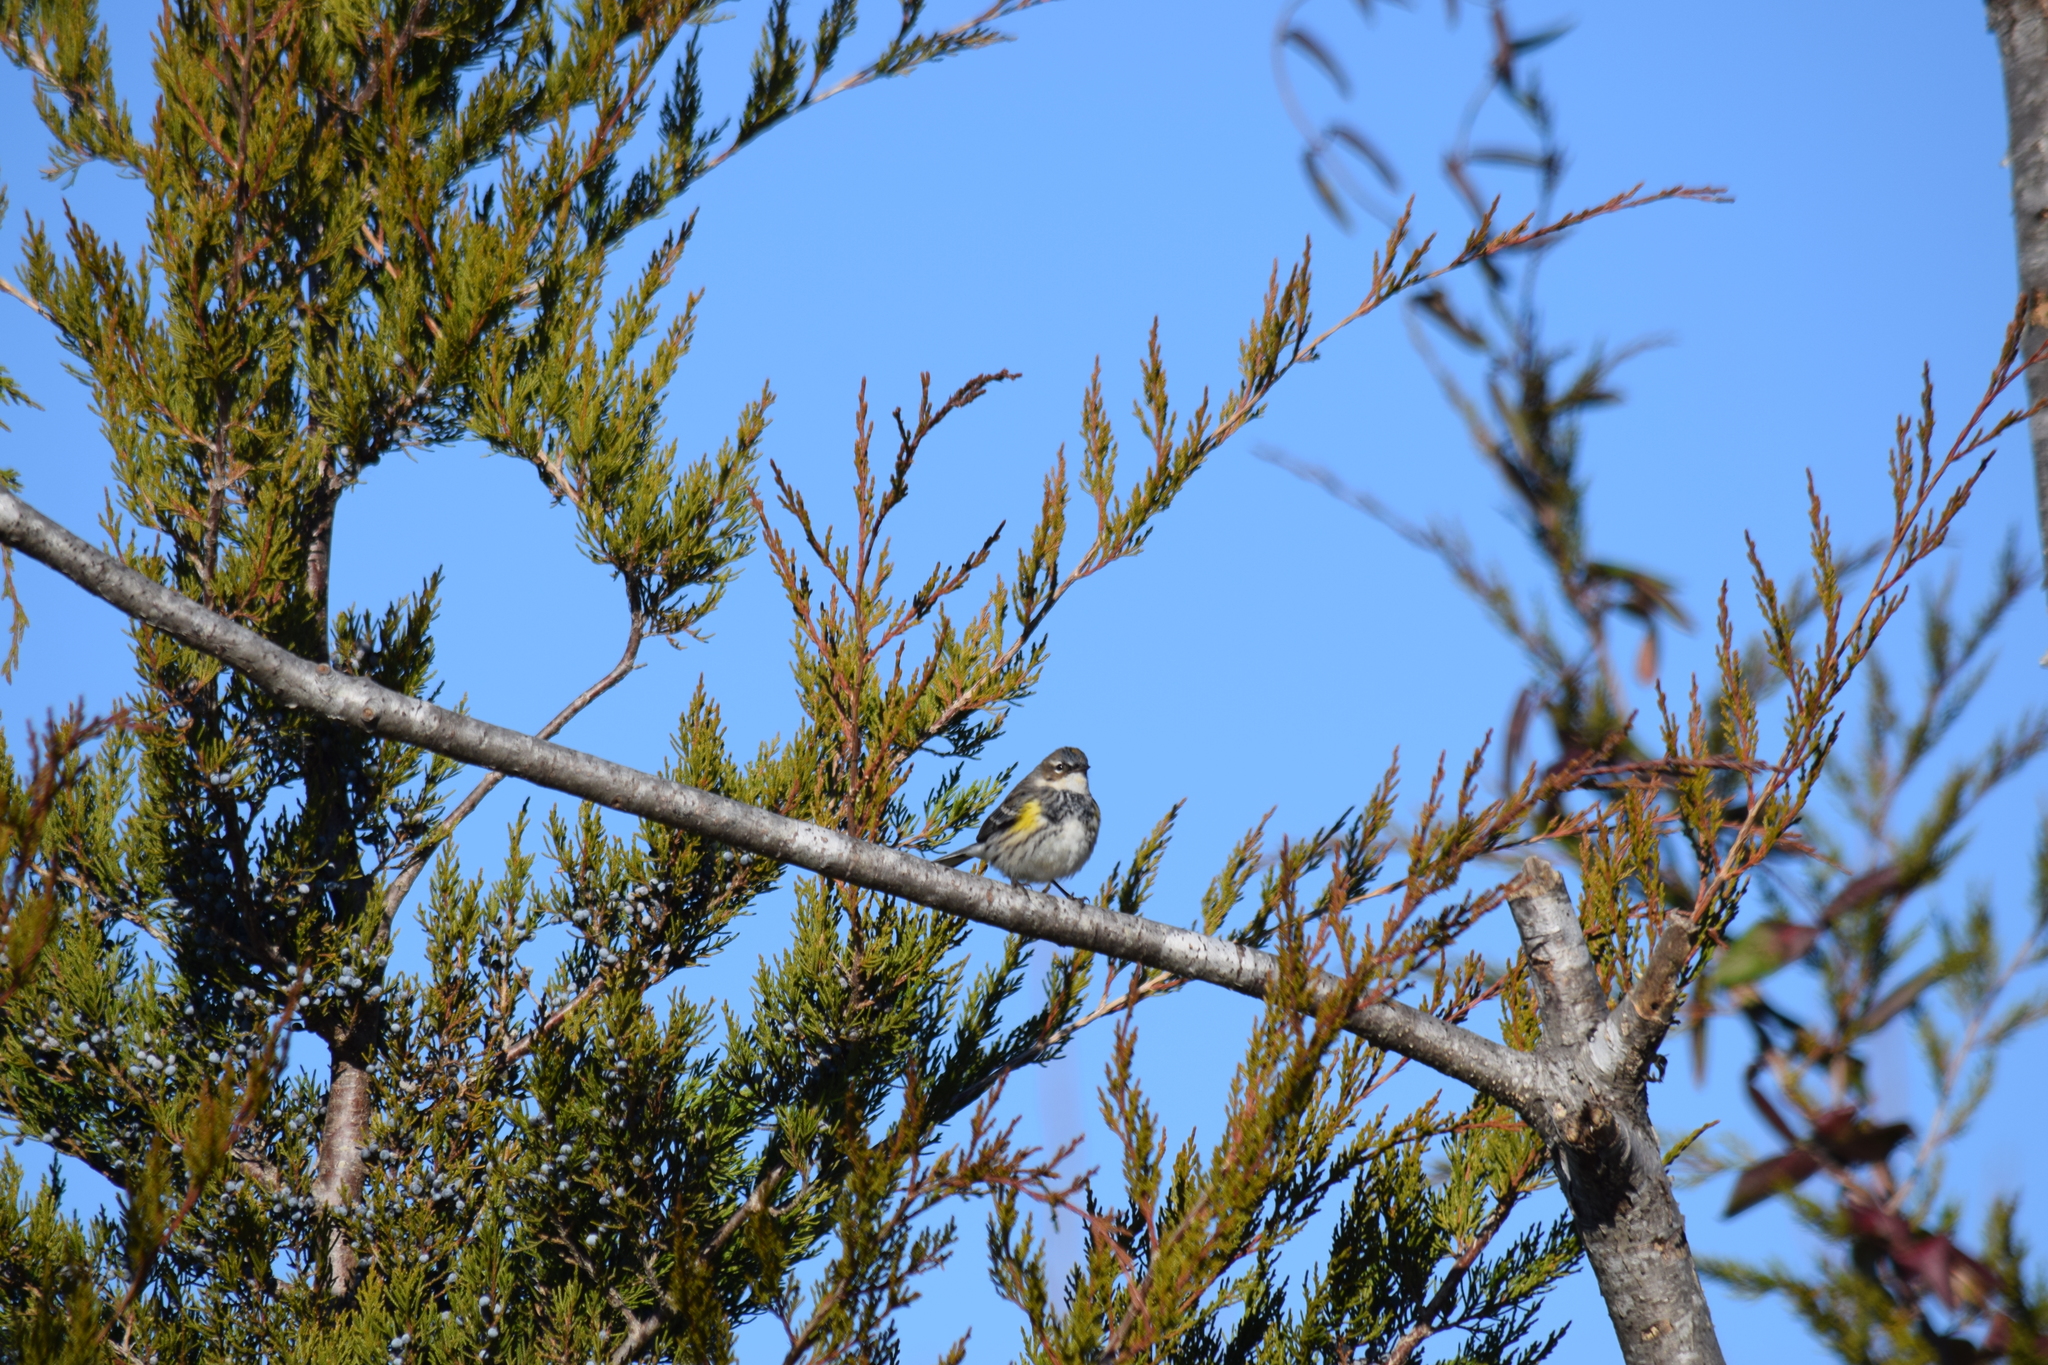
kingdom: Animalia
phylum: Chordata
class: Aves
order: Passeriformes
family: Parulidae
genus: Setophaga
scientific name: Setophaga coronata
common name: Myrtle warbler
